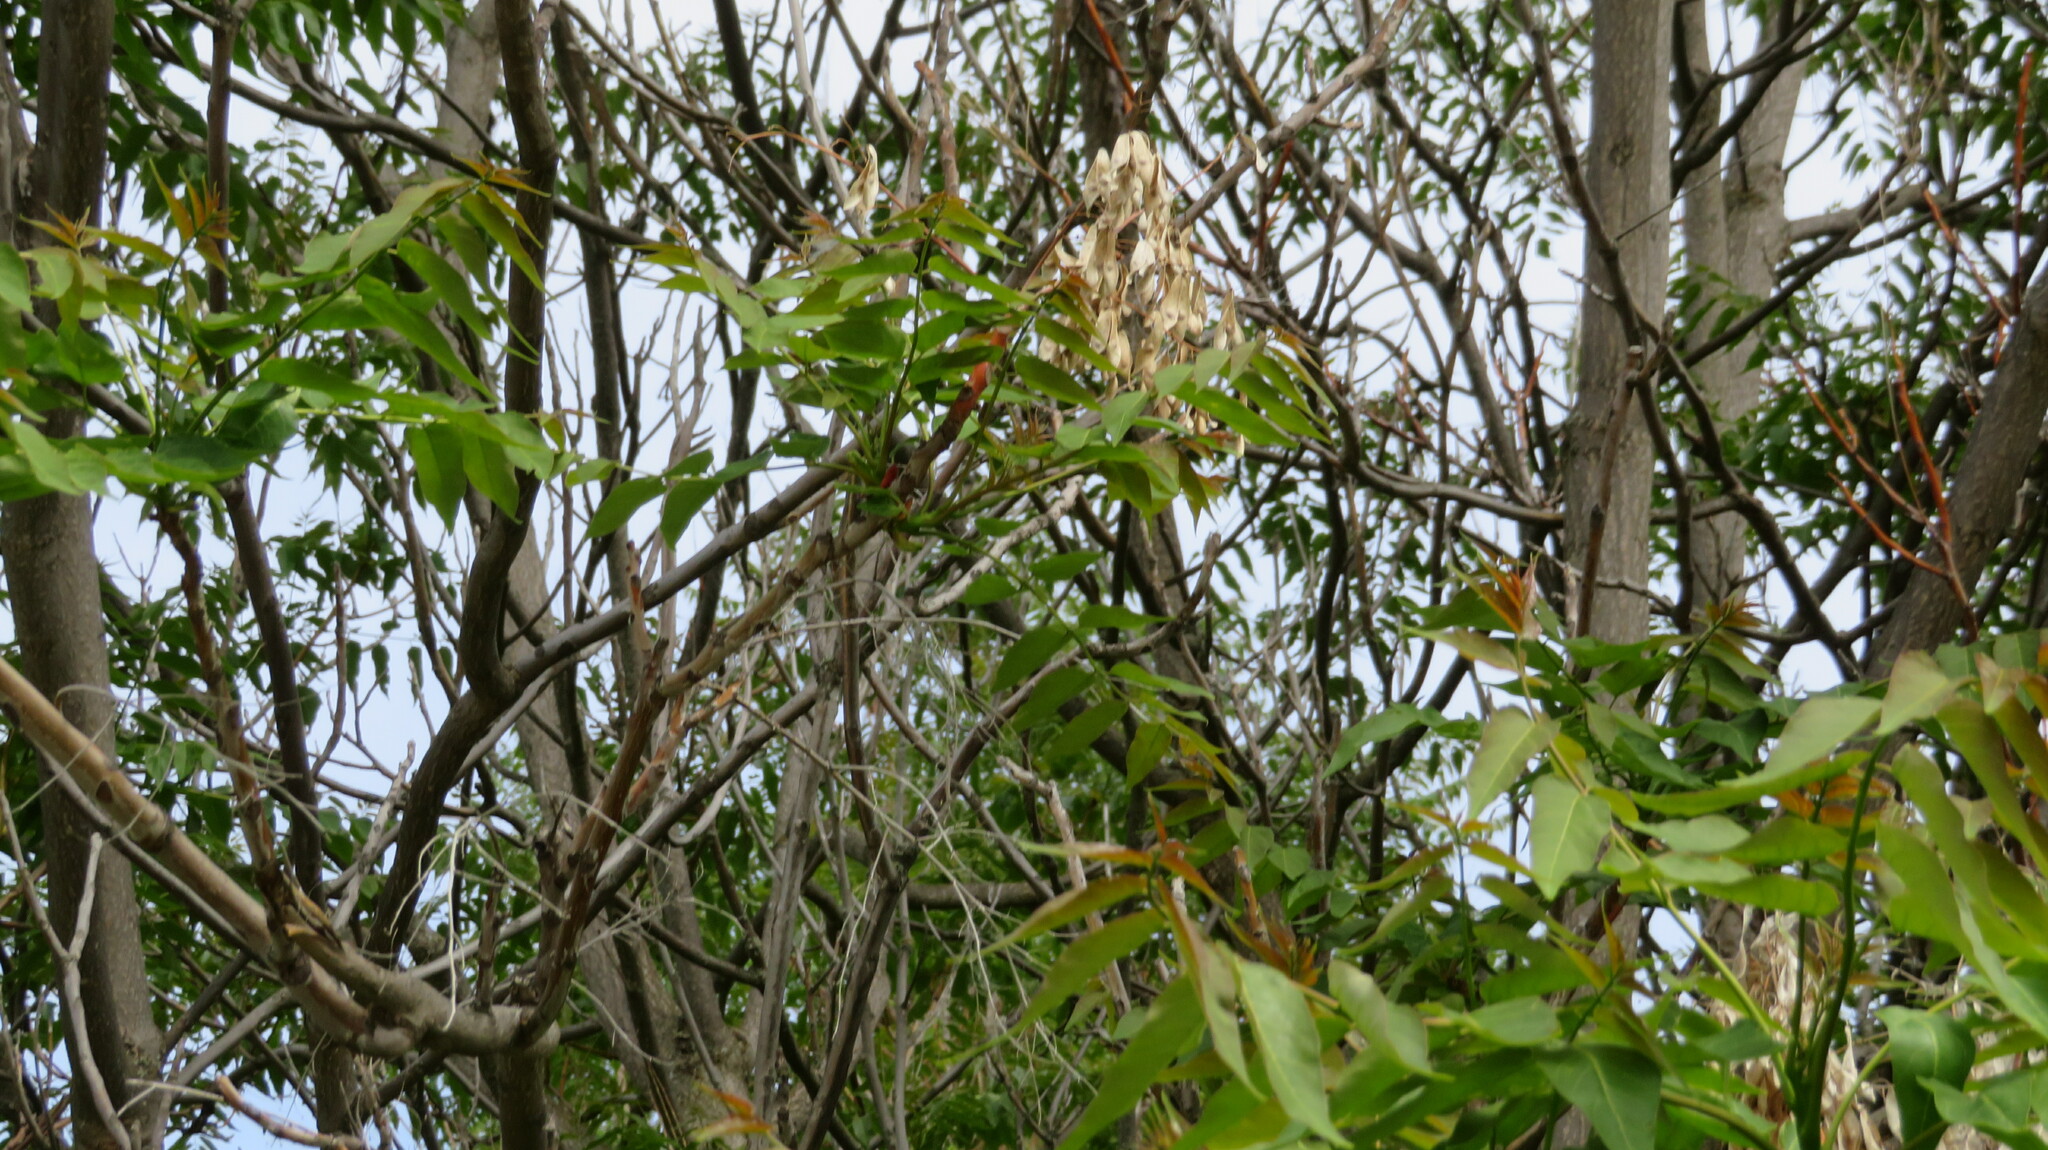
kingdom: Plantae
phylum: Tracheophyta
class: Magnoliopsida
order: Sapindales
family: Simaroubaceae
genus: Ailanthus
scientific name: Ailanthus altissima
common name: Tree-of-heaven
